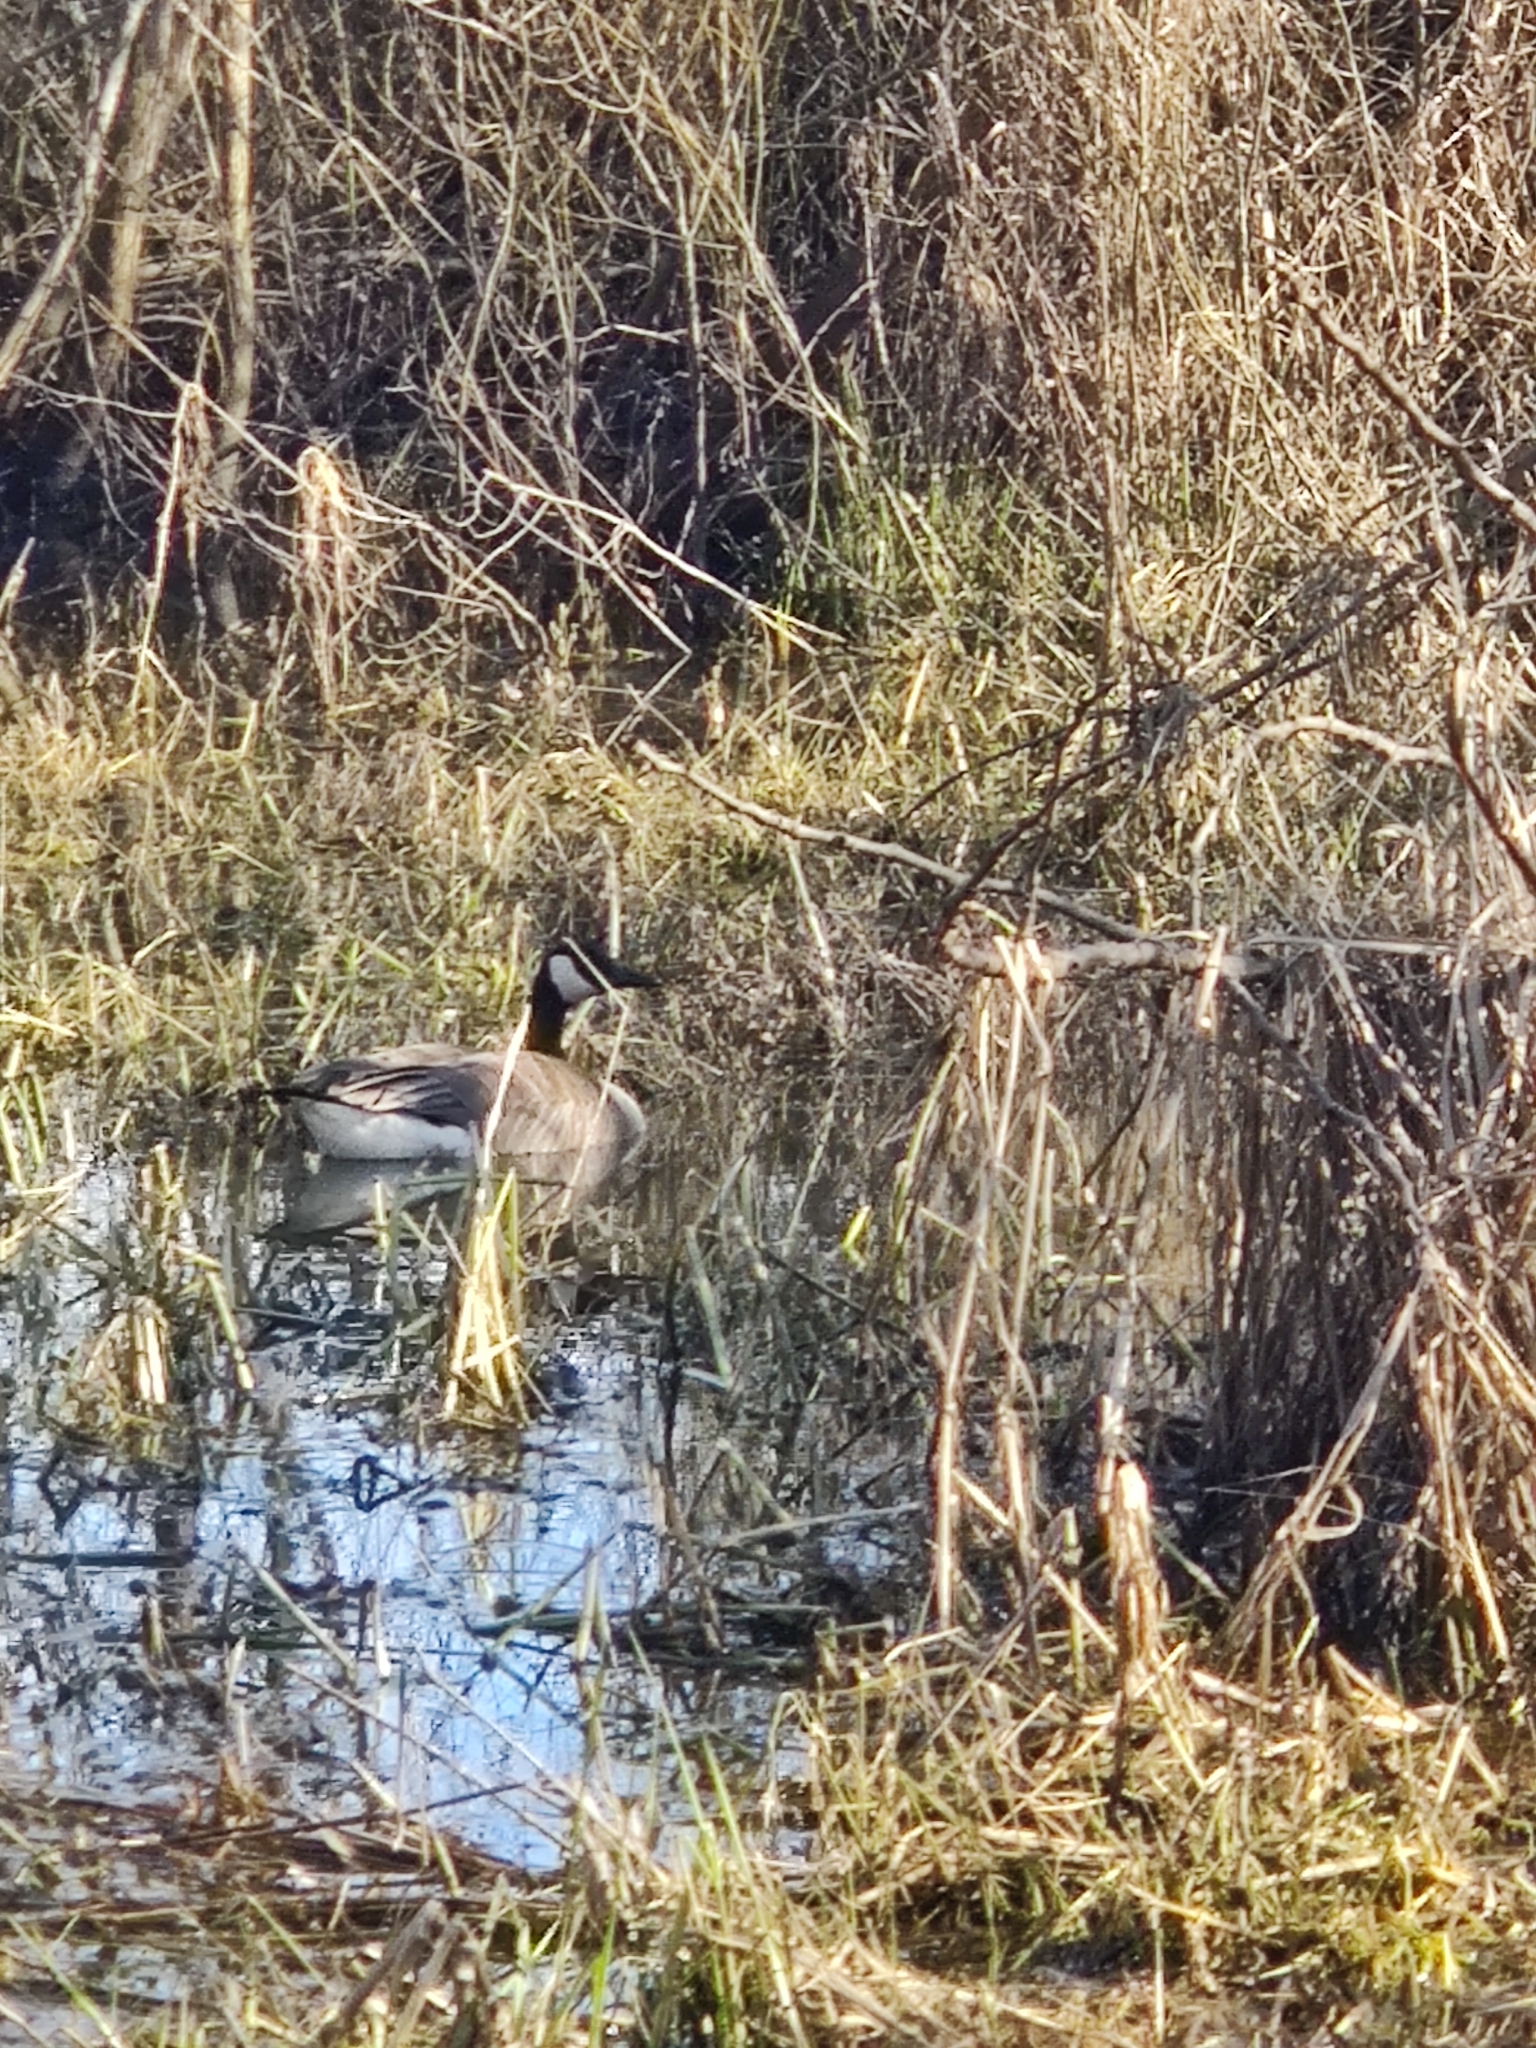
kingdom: Animalia
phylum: Chordata
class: Aves
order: Anseriformes
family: Anatidae
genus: Branta
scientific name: Branta canadensis
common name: Canada goose
